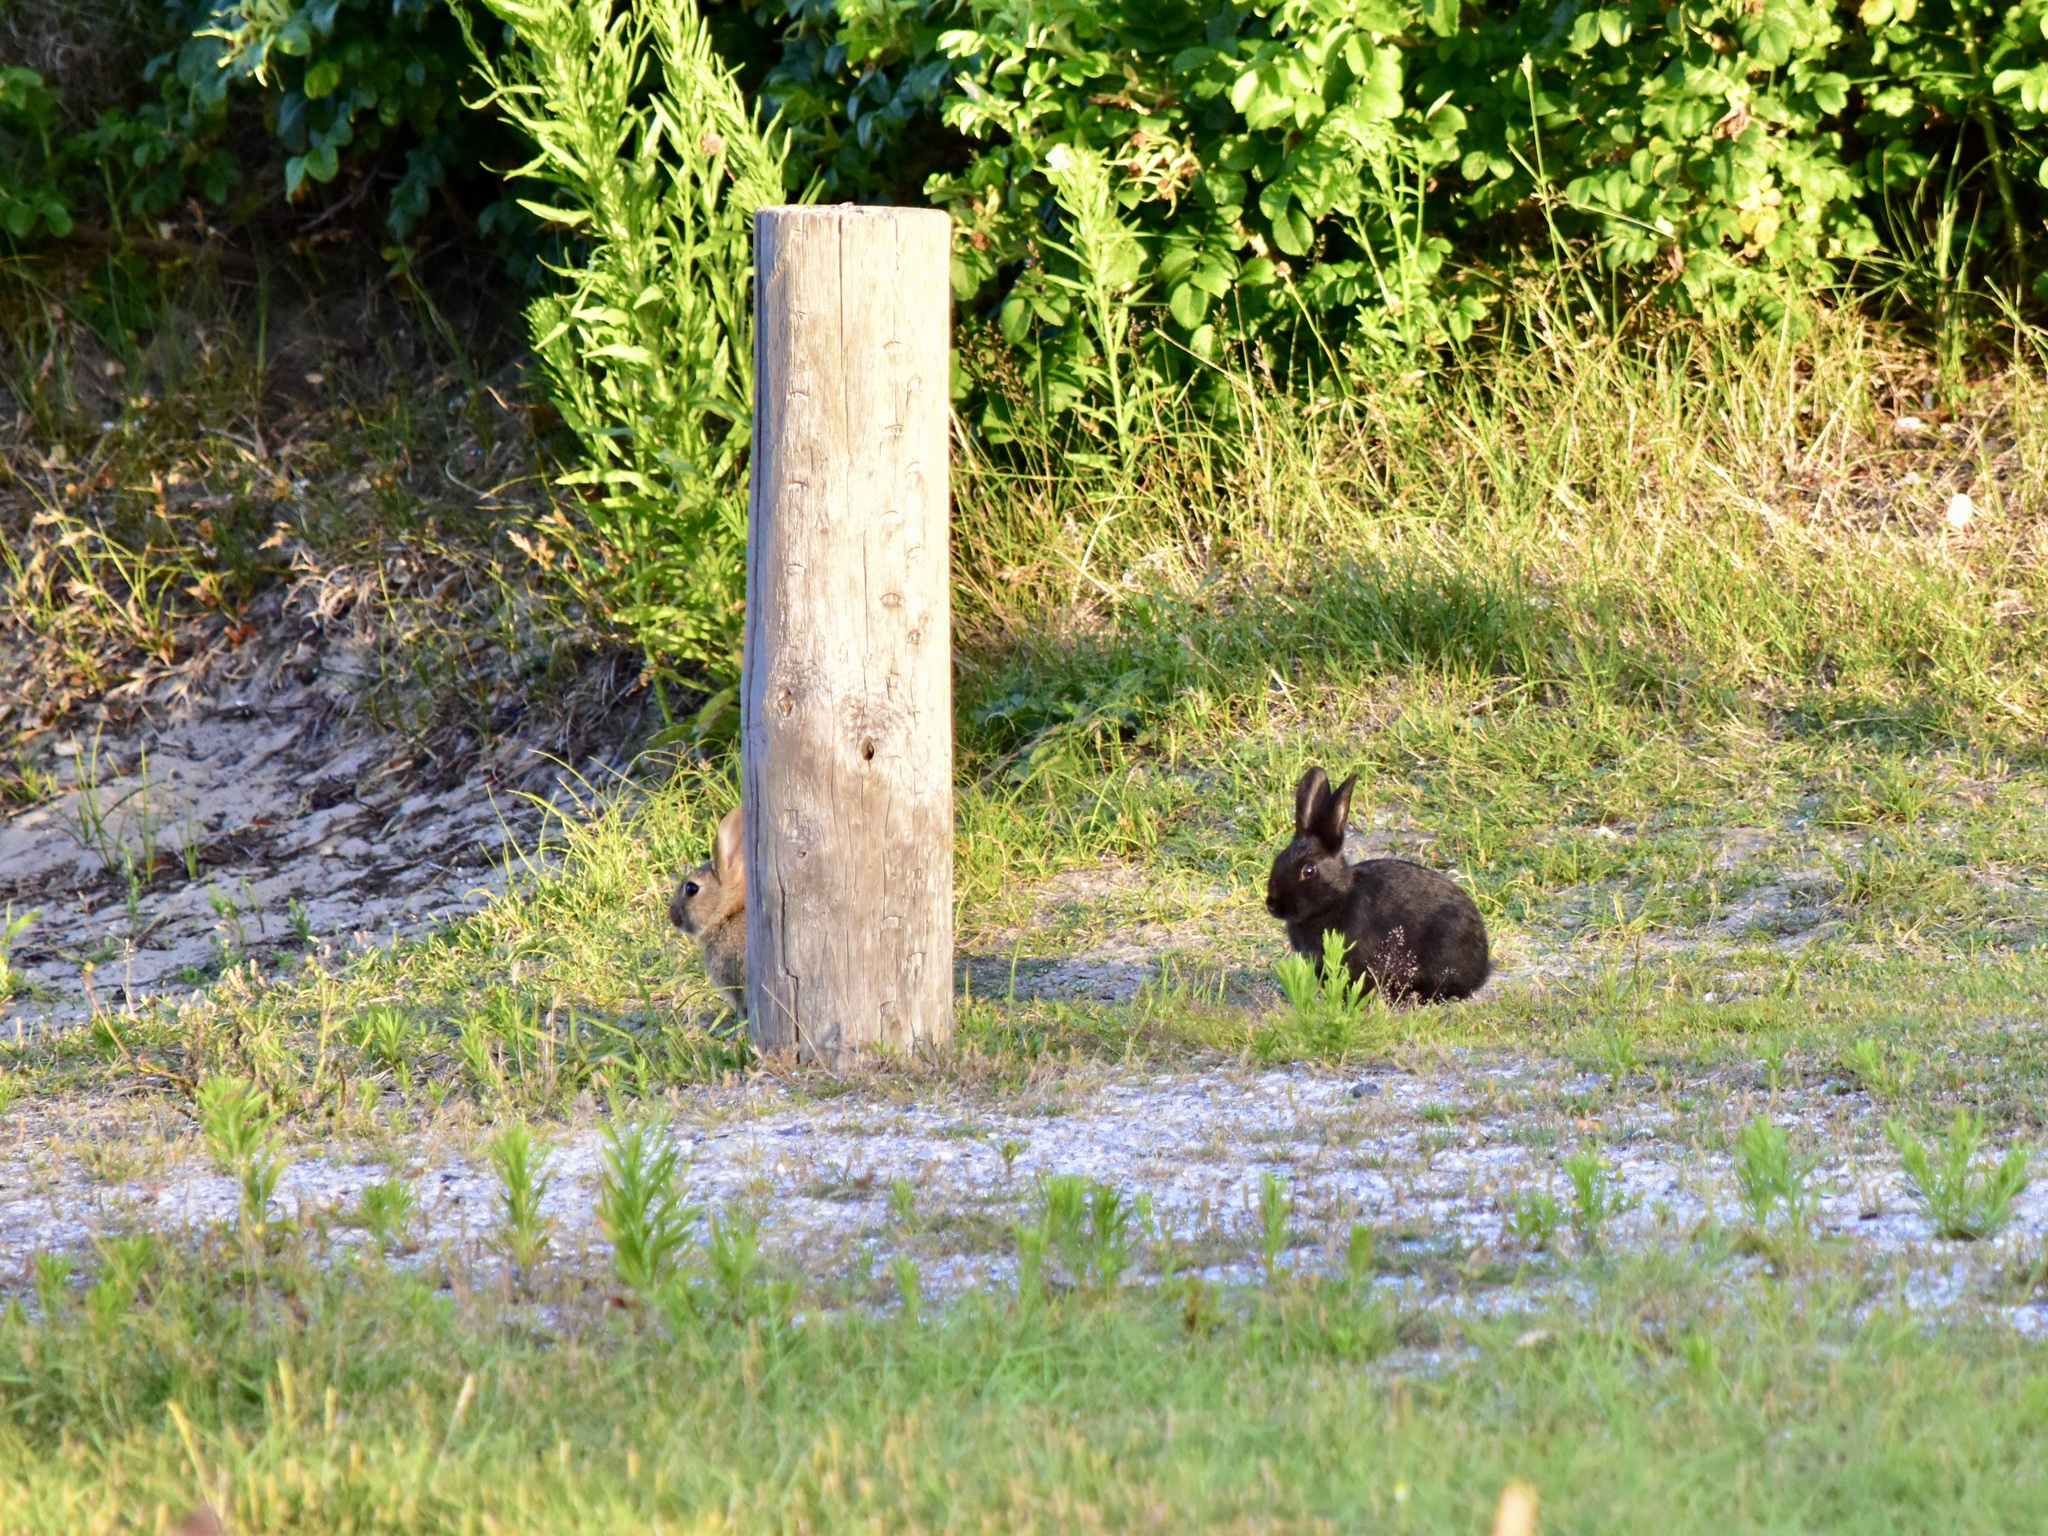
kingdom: Animalia
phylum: Chordata
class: Mammalia
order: Lagomorpha
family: Leporidae
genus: Oryctolagus
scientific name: Oryctolagus cuniculus
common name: European rabbit
